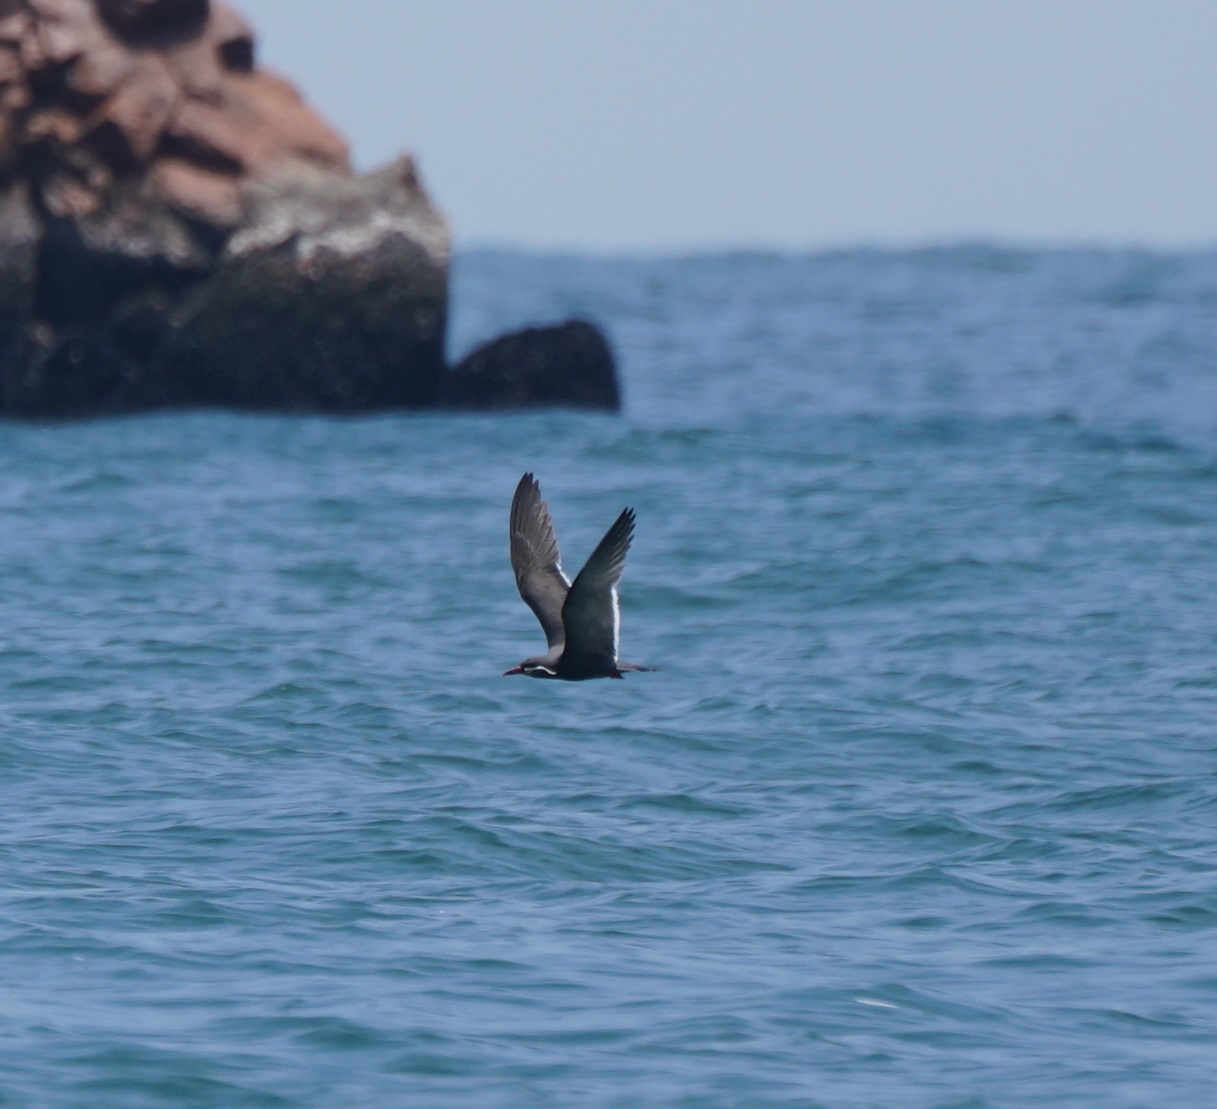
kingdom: Animalia
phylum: Chordata
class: Aves
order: Charadriiformes
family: Laridae
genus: Larosterna
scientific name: Larosterna inca
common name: Inca tern
